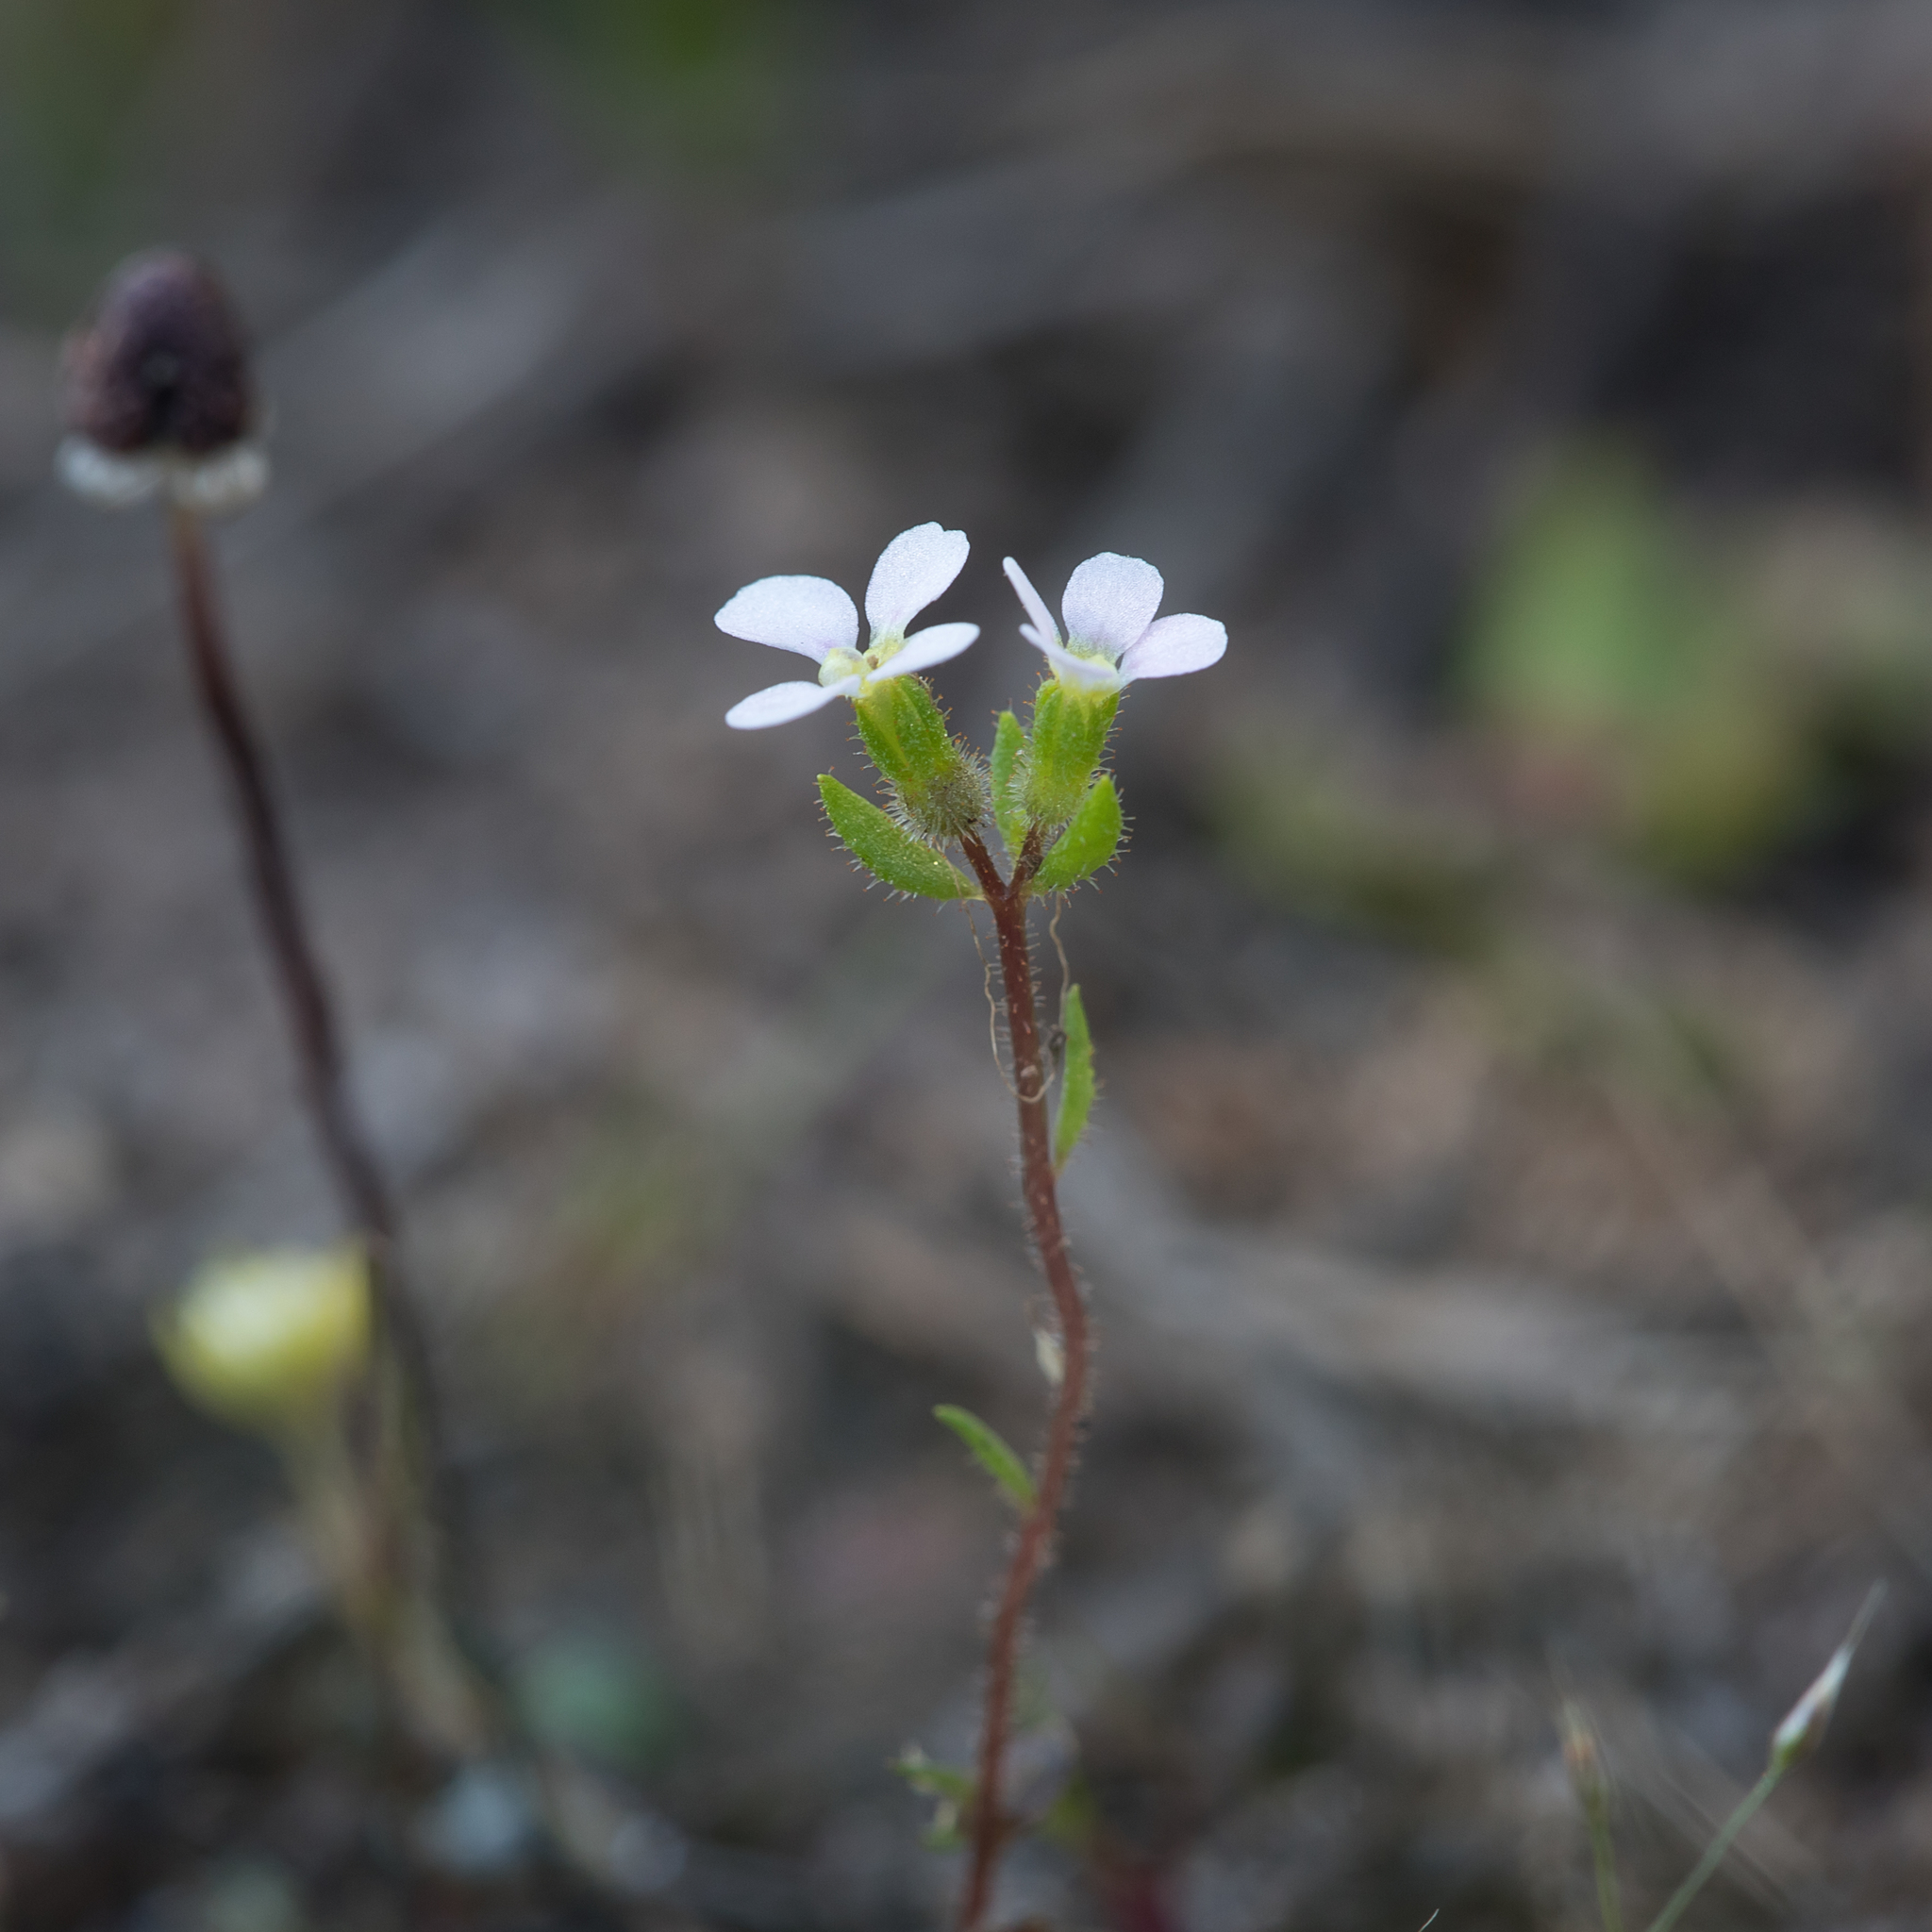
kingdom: Plantae
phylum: Tracheophyta
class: Magnoliopsida
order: Asterales
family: Stylidiaceae
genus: Levenhookia
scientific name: Levenhookia dubia
